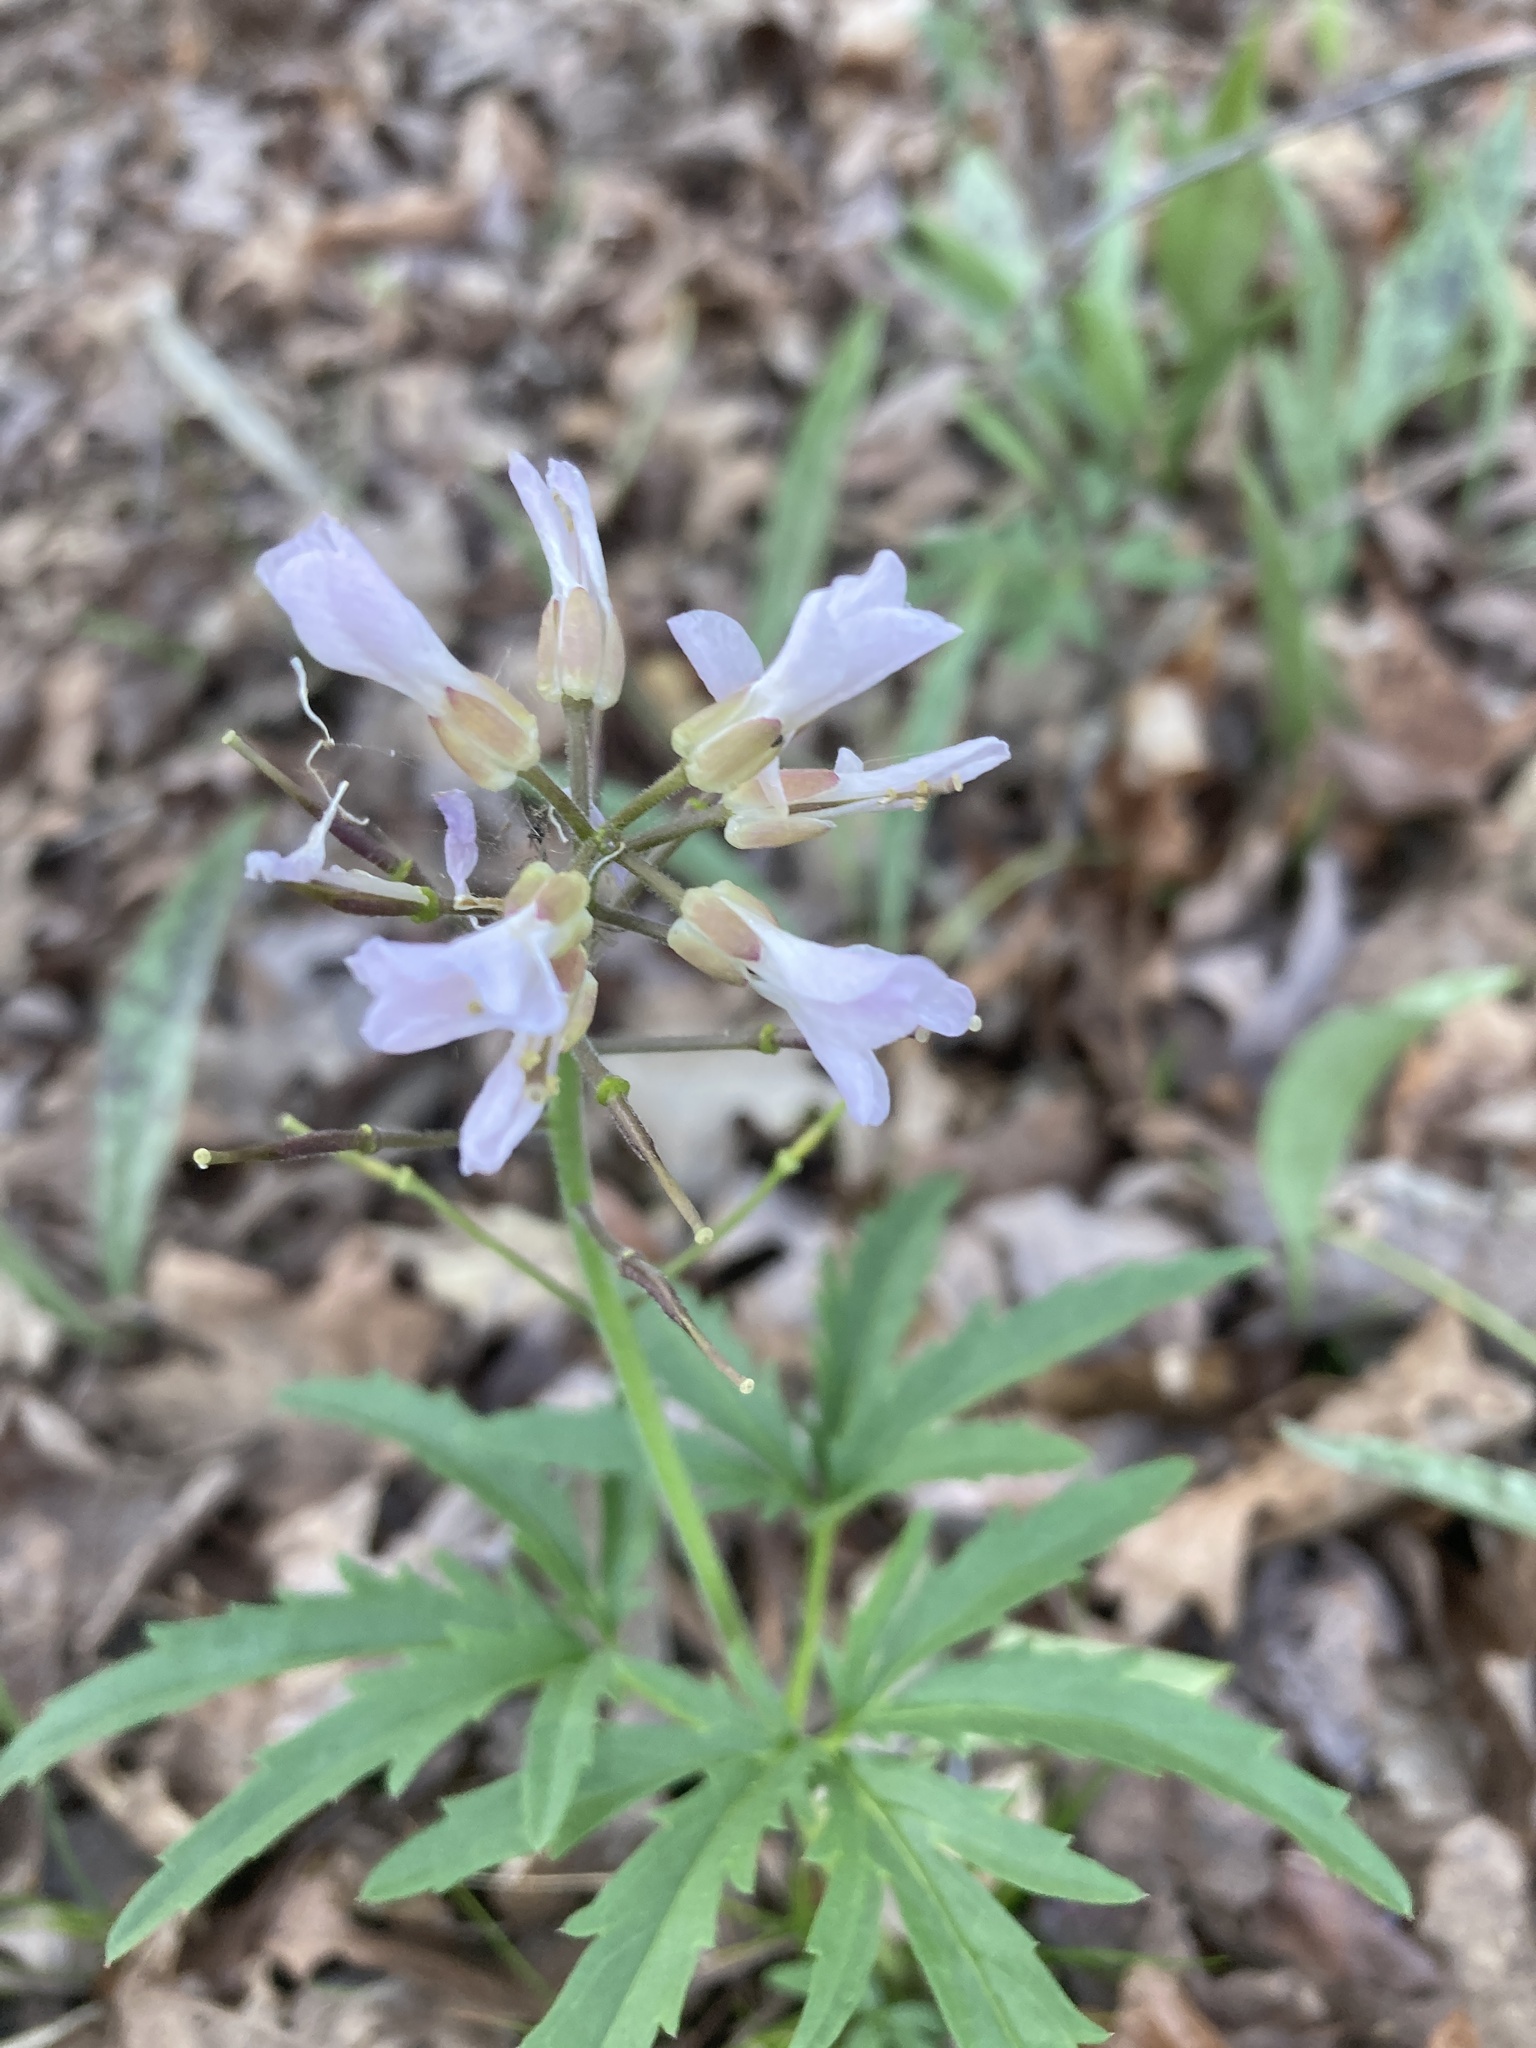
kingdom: Plantae
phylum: Tracheophyta
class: Magnoliopsida
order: Brassicales
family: Brassicaceae
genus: Cardamine
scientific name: Cardamine concatenata
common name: Cut-leaf toothcup
